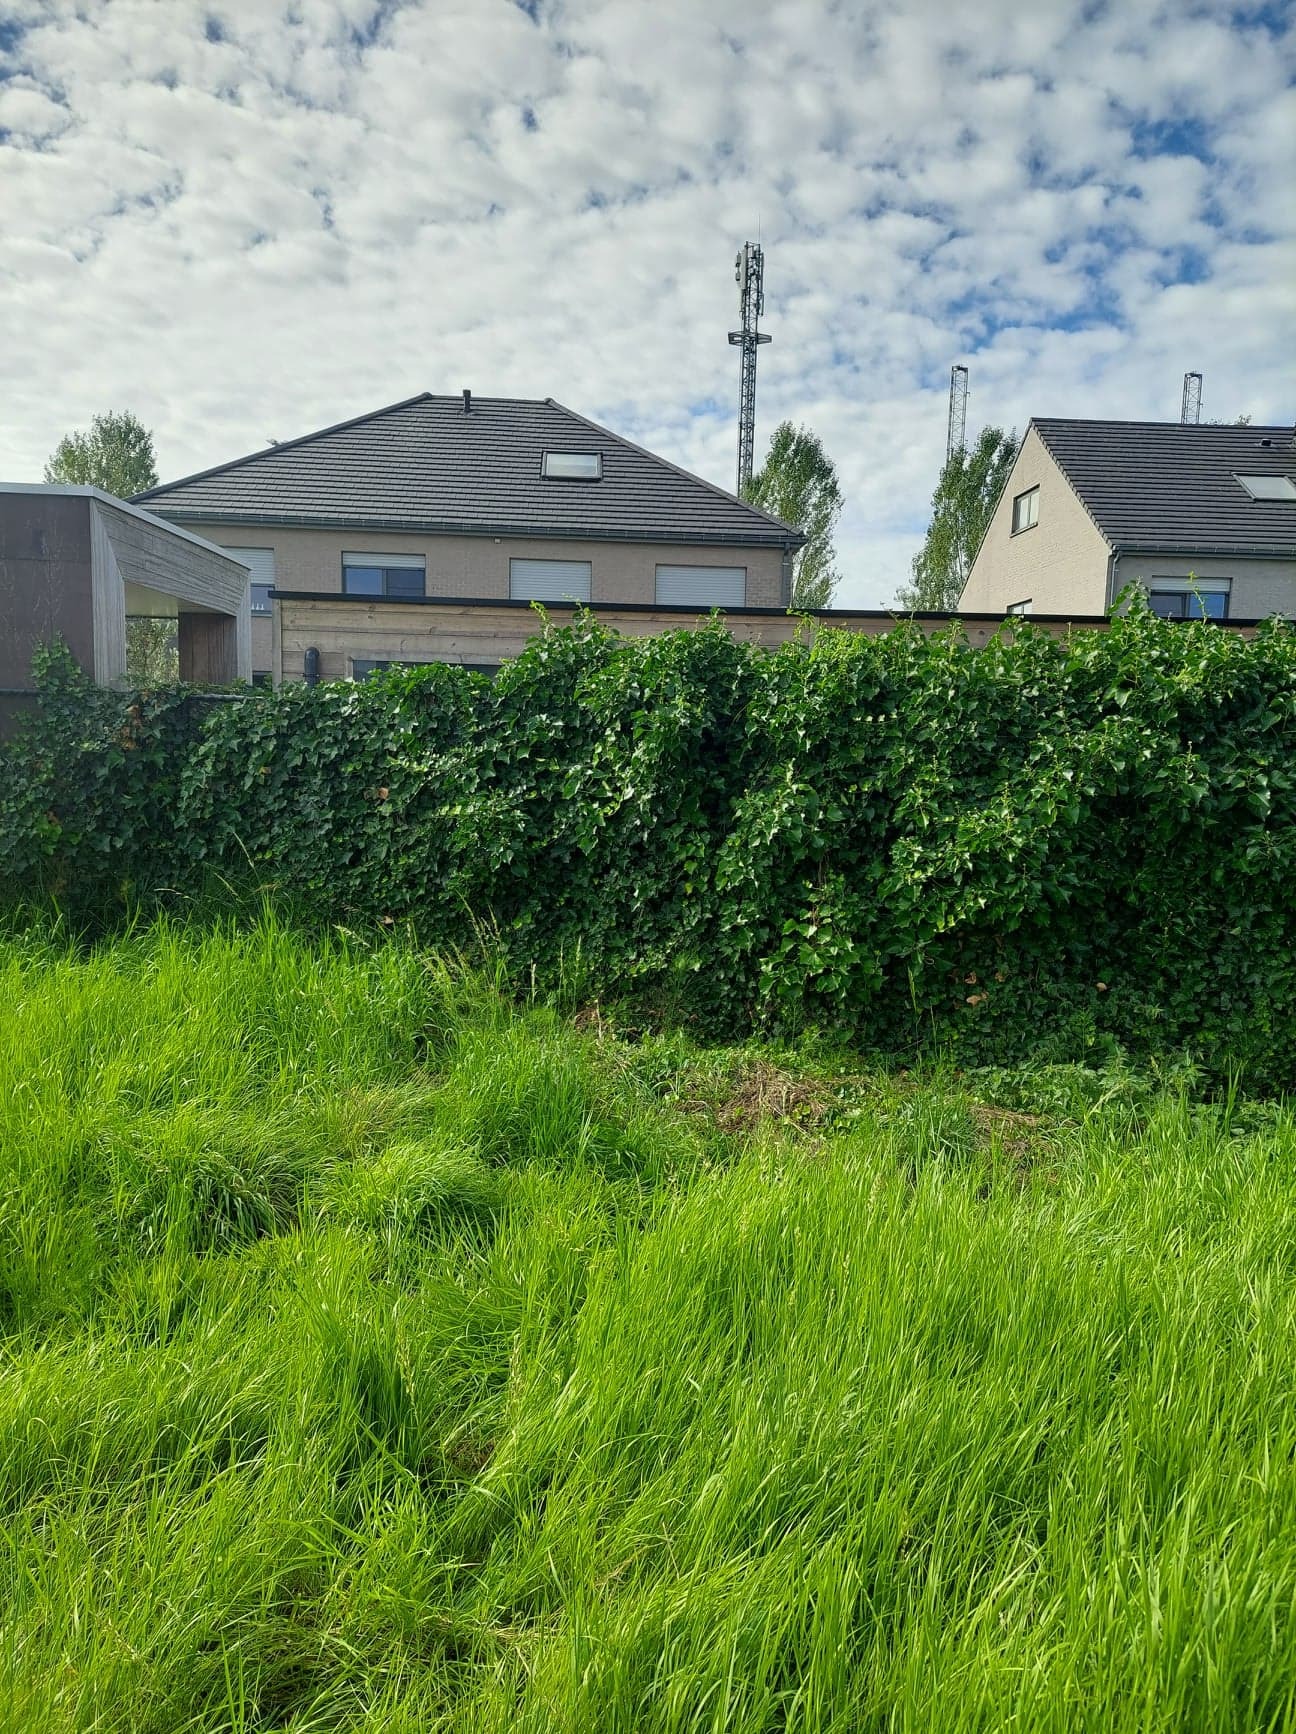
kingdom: Animalia
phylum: Arthropoda
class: Insecta
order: Hymenoptera
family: Vespidae
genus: Vespa
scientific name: Vespa velutina
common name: Asian hornet
